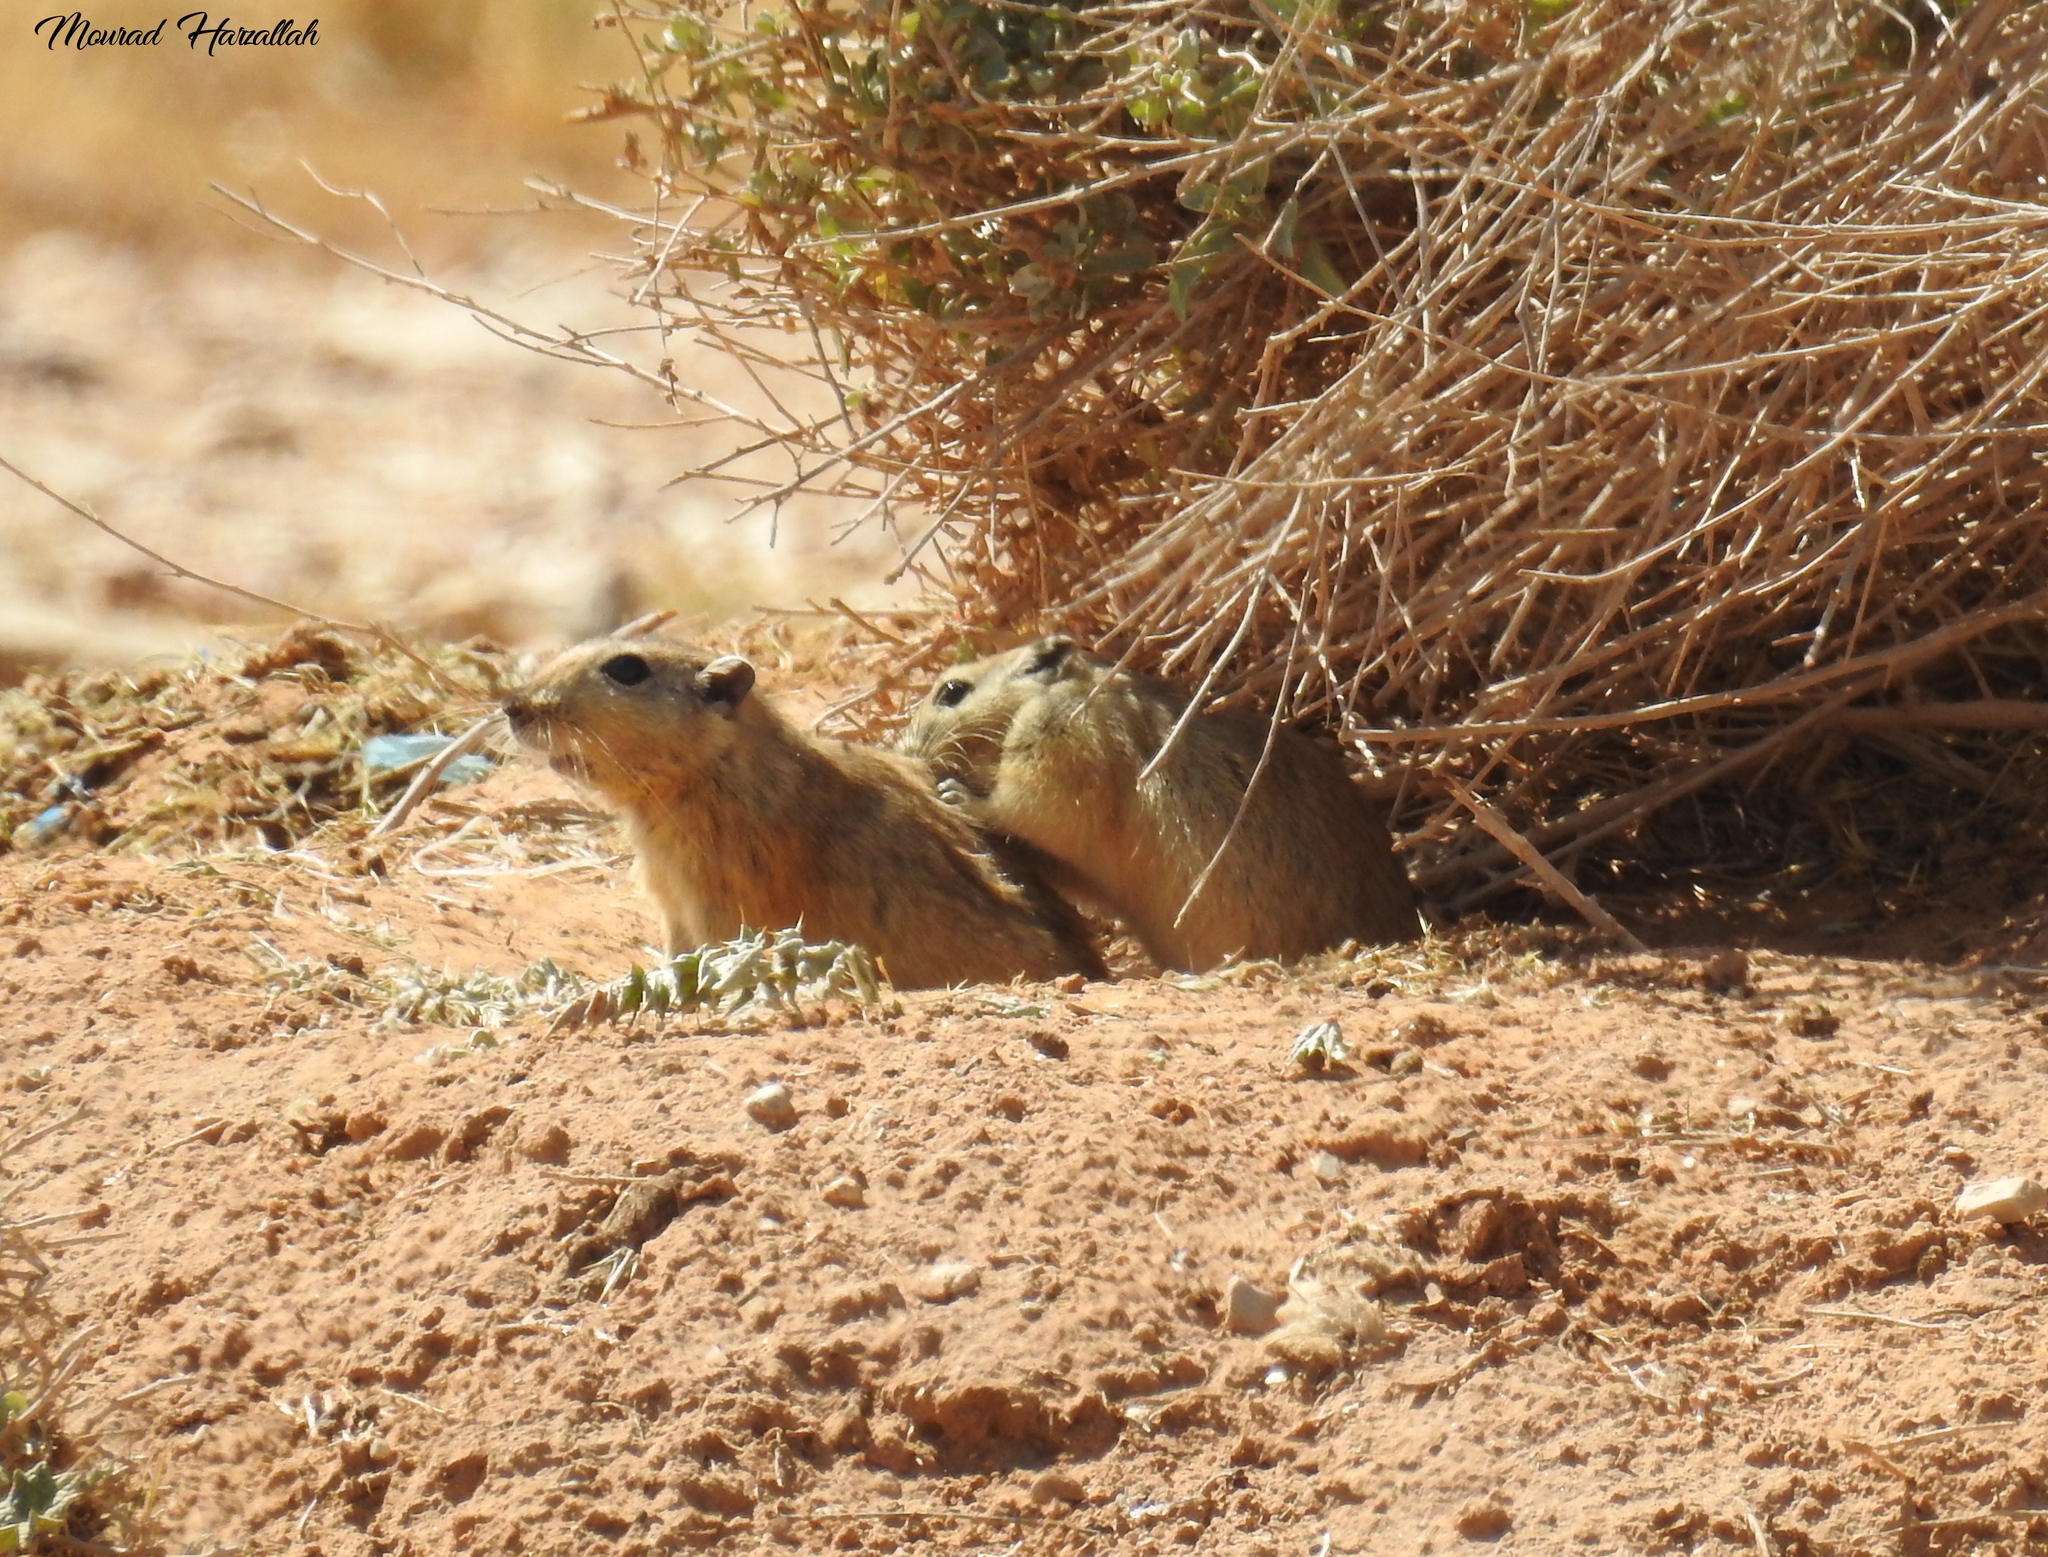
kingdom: Animalia
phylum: Chordata
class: Mammalia
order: Rodentia
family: Muridae
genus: Psammomys
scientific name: Psammomys obesus
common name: Fat sand rat
